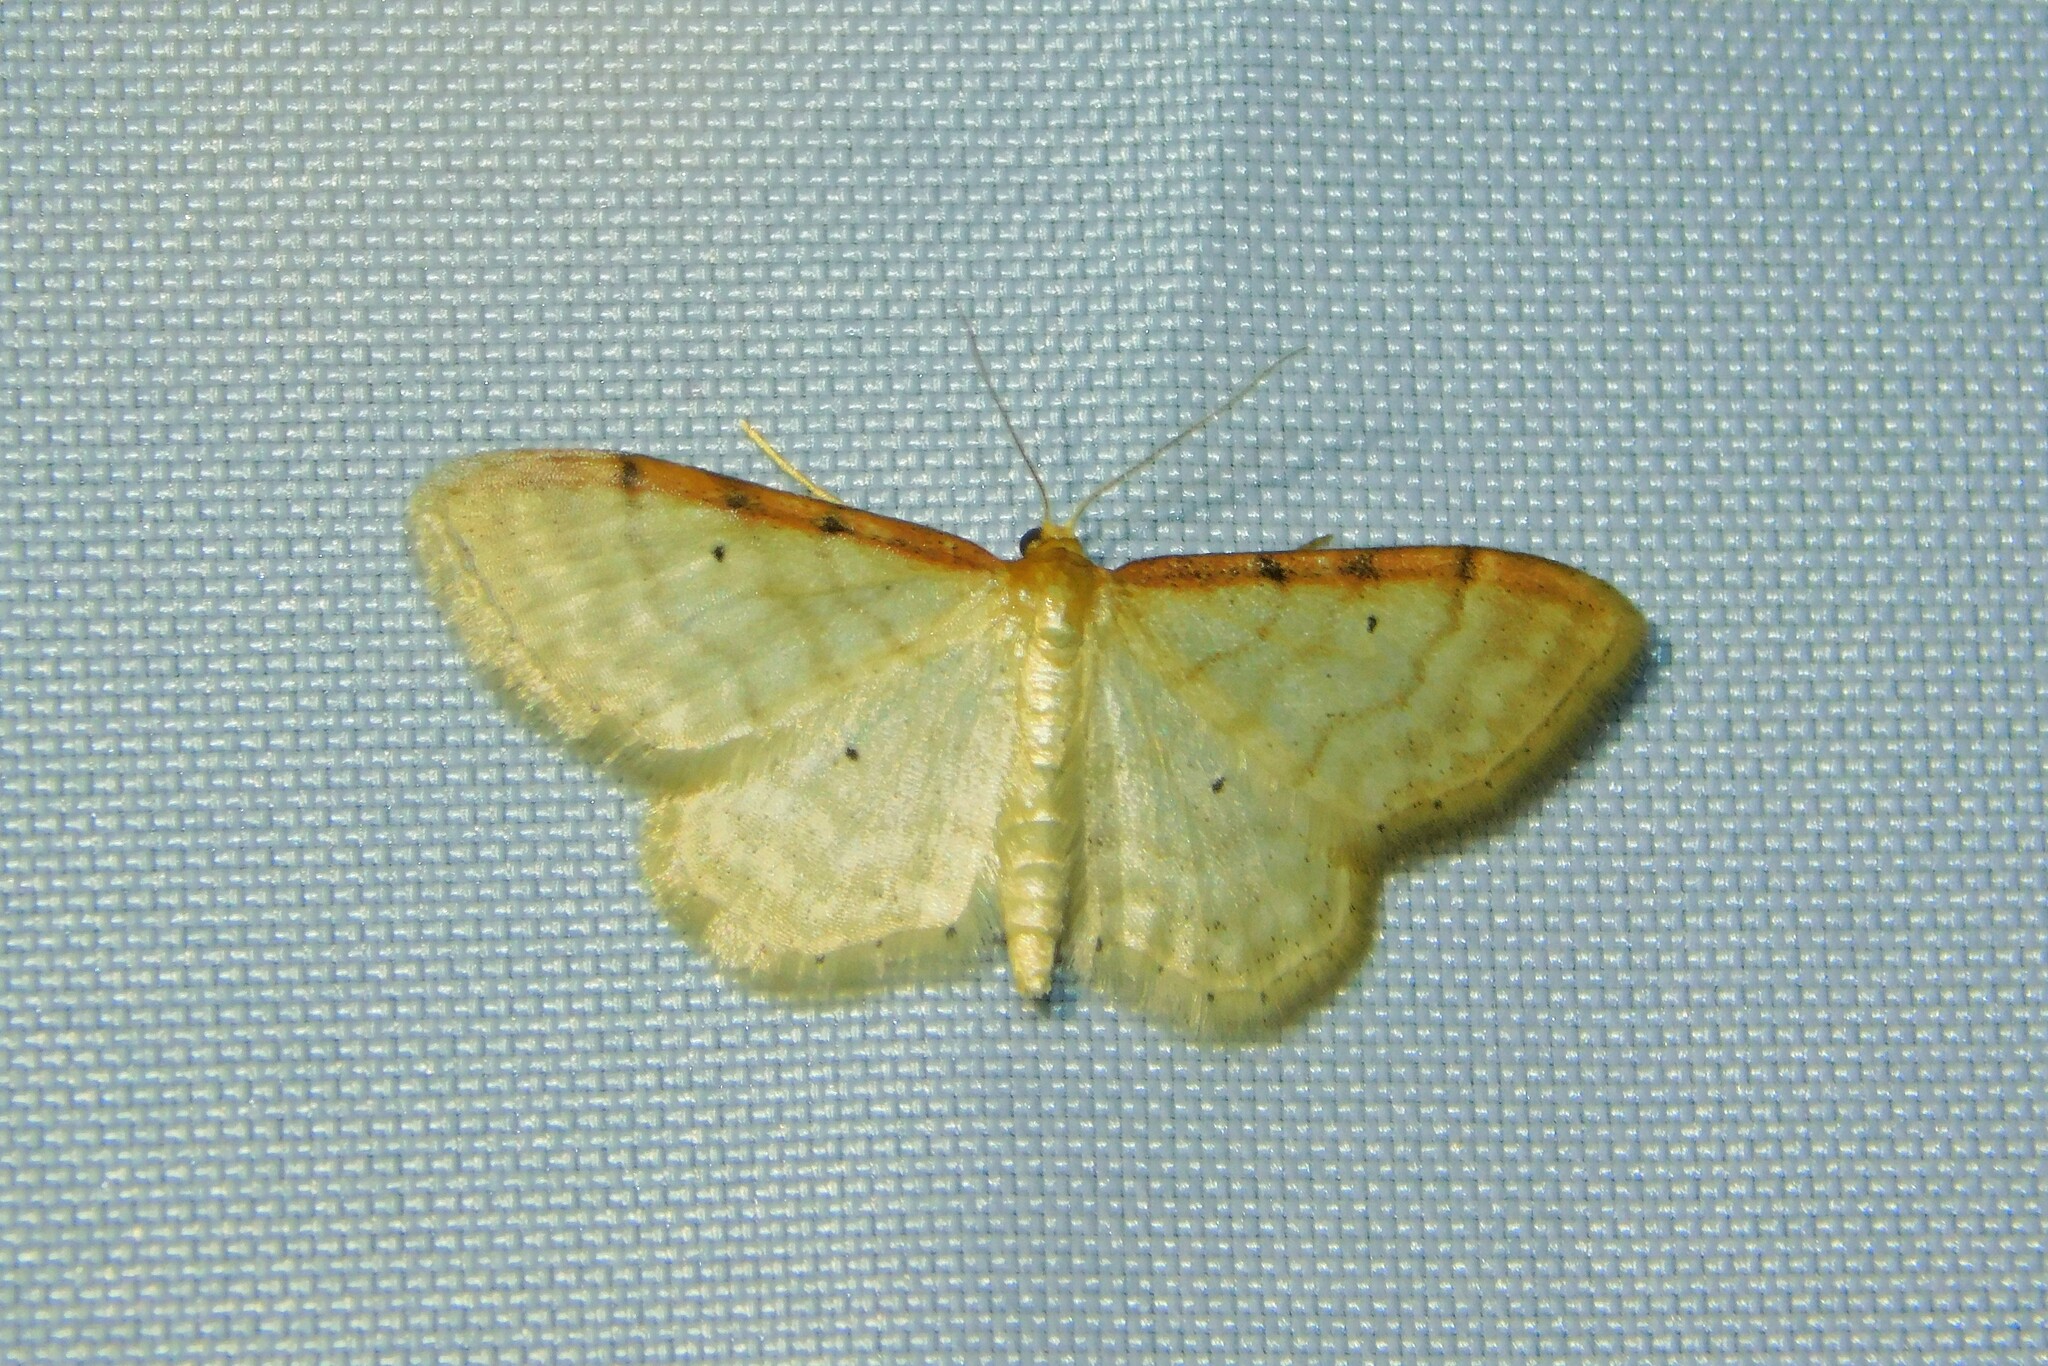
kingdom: Animalia
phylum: Arthropoda
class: Insecta
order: Lepidoptera
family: Geometridae
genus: Idaea
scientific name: Idaea humiliata
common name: Isle of wight wave
